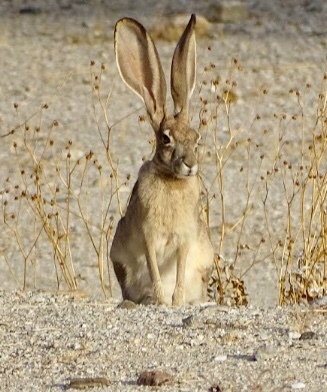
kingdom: Animalia
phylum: Chordata
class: Mammalia
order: Lagomorpha
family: Leporidae
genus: Lepus
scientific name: Lepus californicus
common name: Black-tailed jackrabbit
